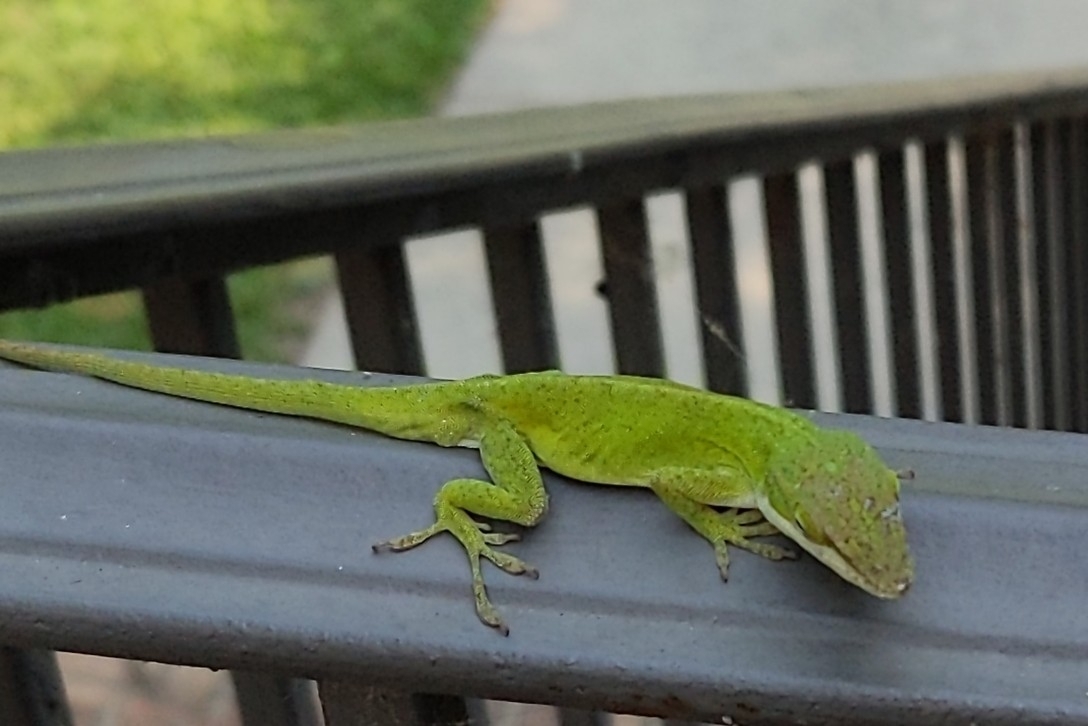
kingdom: Animalia
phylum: Chordata
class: Squamata
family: Dactyloidae
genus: Anolis
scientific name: Anolis carolinensis
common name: Green anole
